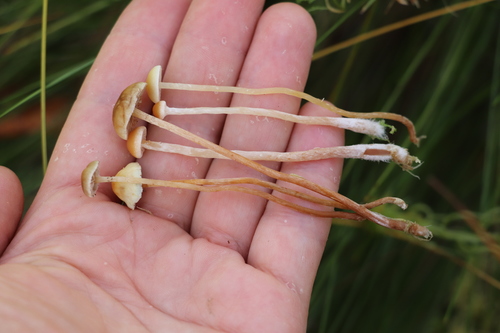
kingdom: Fungi
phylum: Basidiomycota
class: Agaricomycetes
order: Agaricales
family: Strophariaceae
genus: Hypholoma
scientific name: Hypholoma elongatum
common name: Sphagnum brownie
